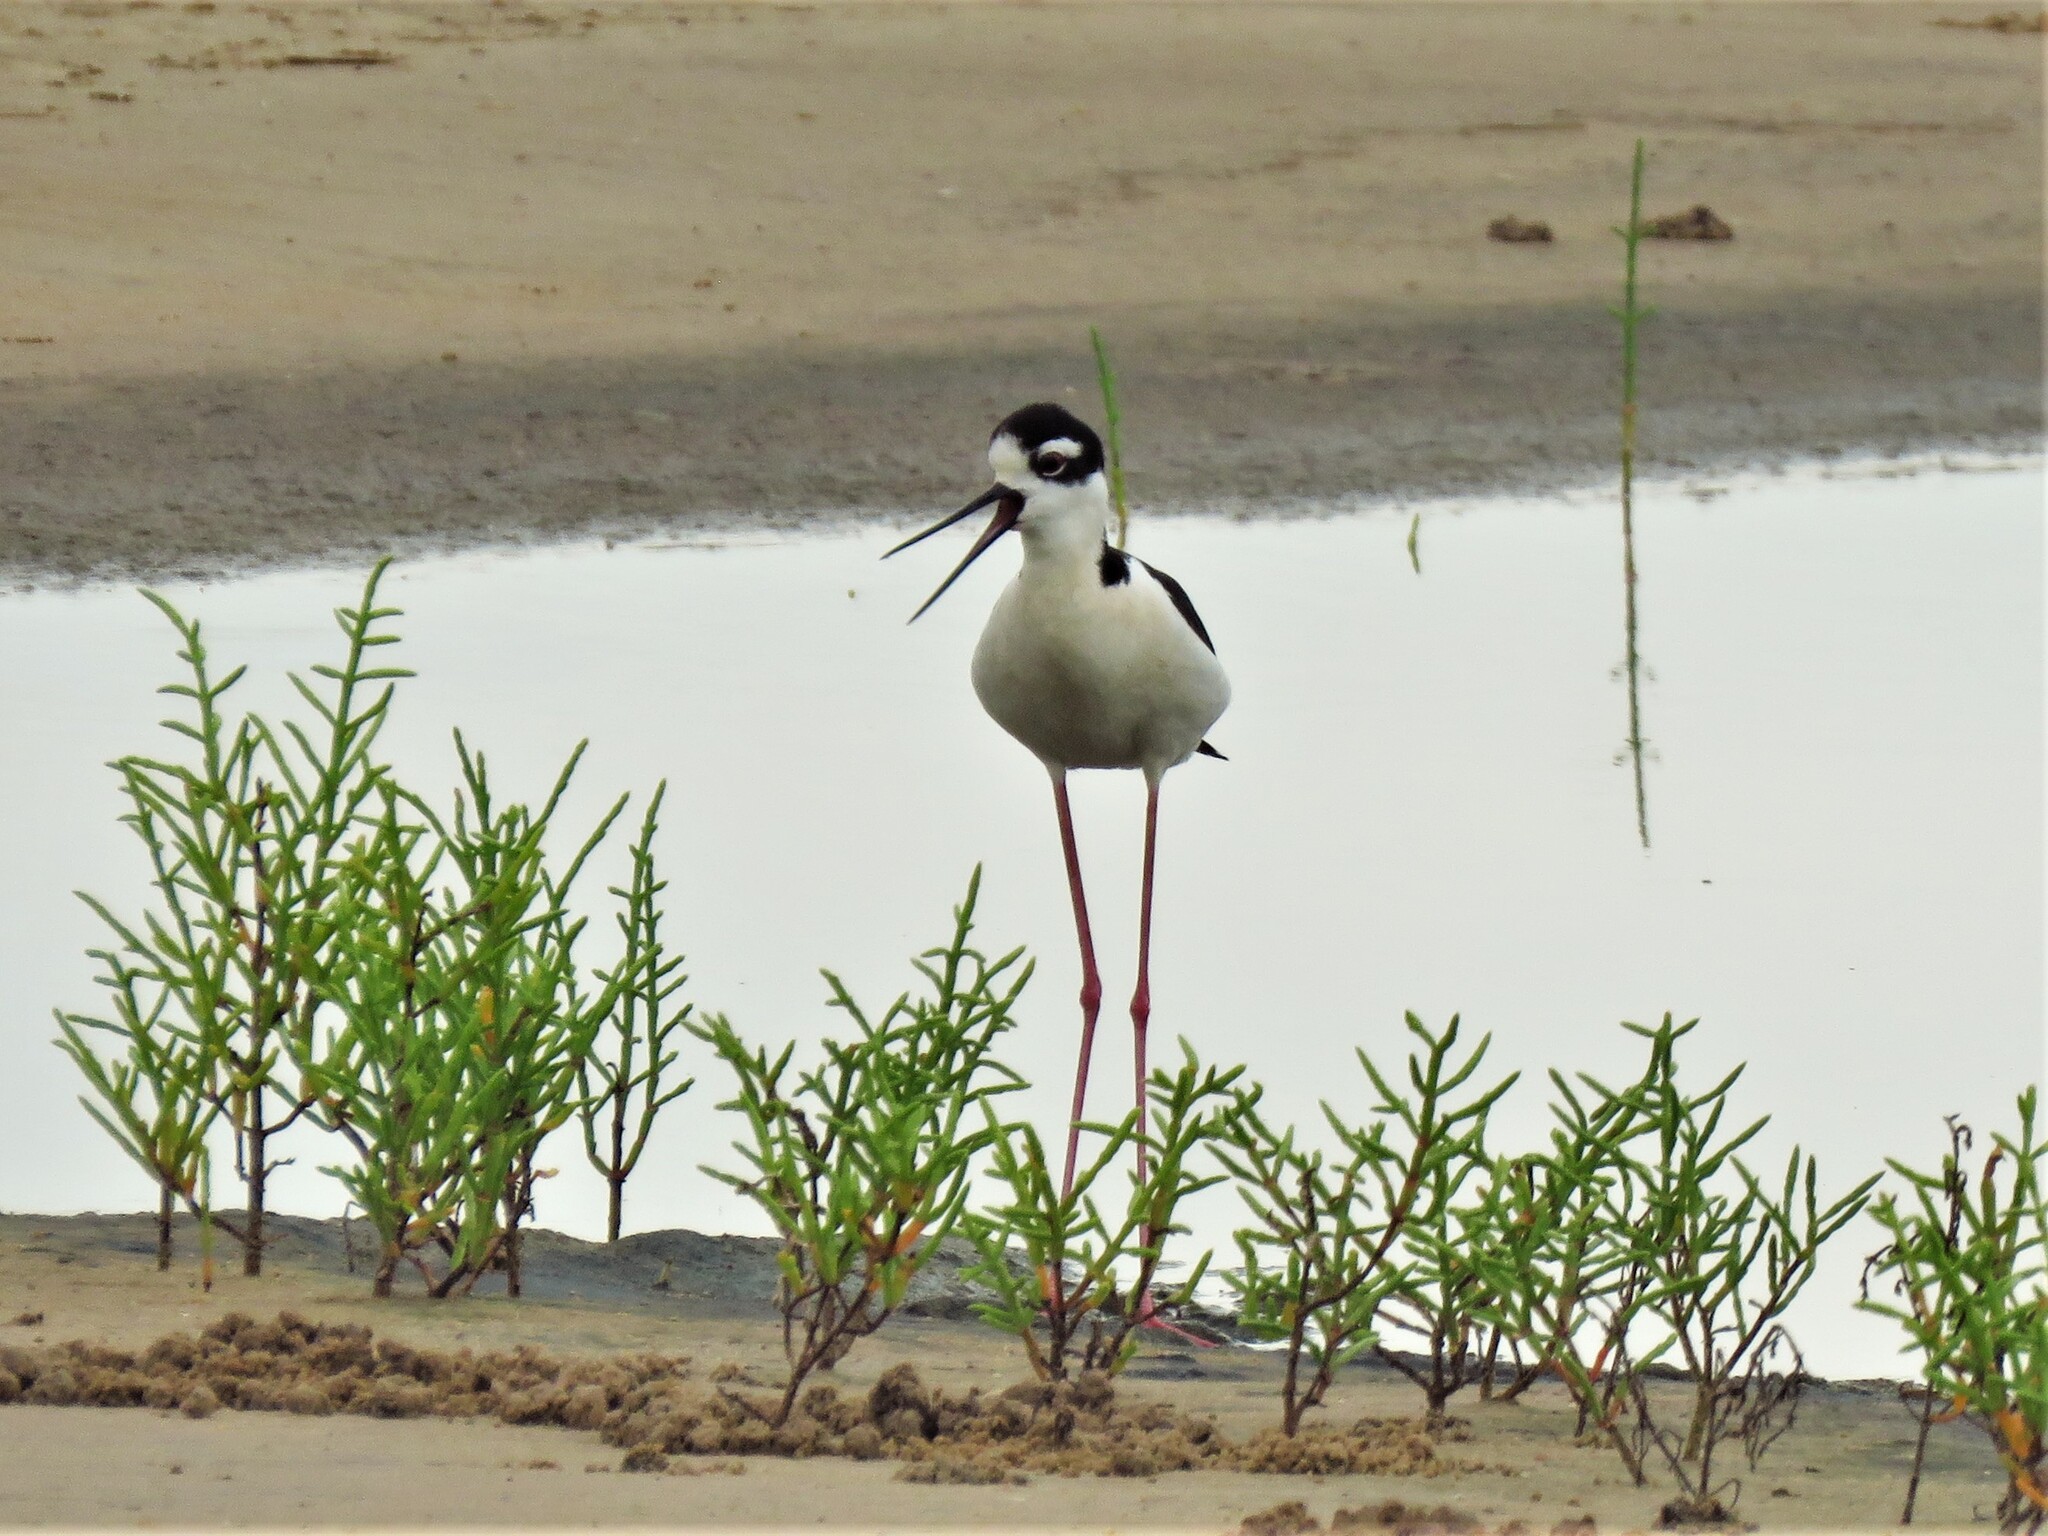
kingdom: Animalia
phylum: Chordata
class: Aves
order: Charadriiformes
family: Recurvirostridae
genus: Himantopus
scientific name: Himantopus mexicanus
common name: Black-necked stilt
